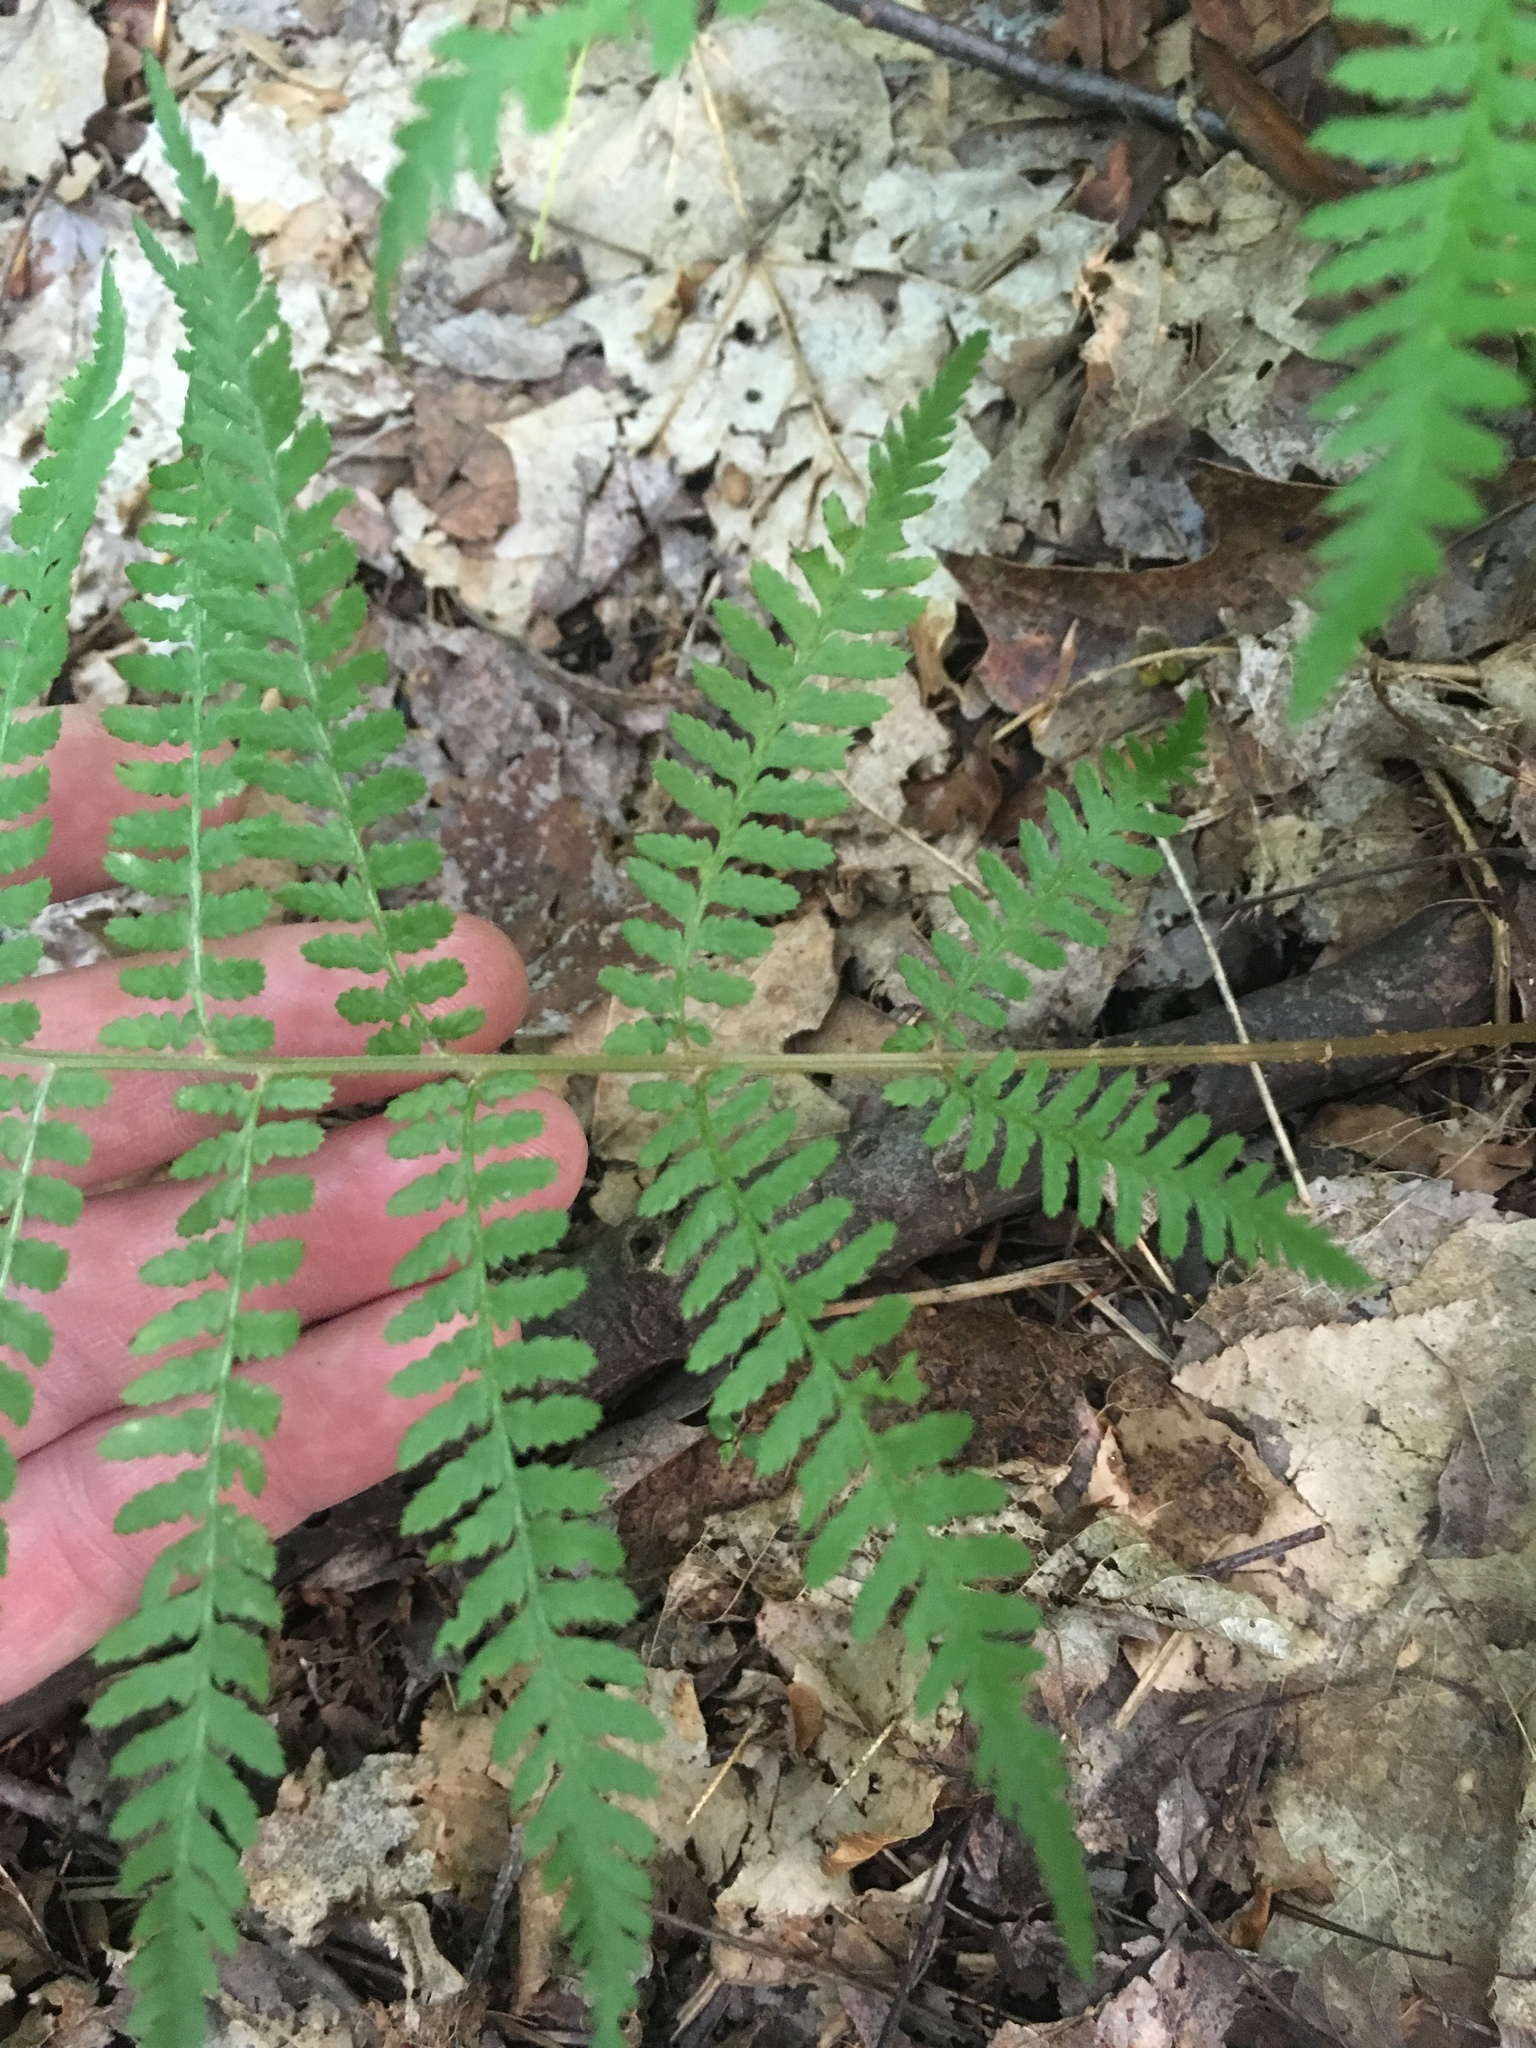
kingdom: Plantae
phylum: Tracheophyta
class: Polypodiopsida
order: Polypodiales
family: Athyriaceae
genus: Athyrium
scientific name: Athyrium angustum
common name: Northern lady fern
